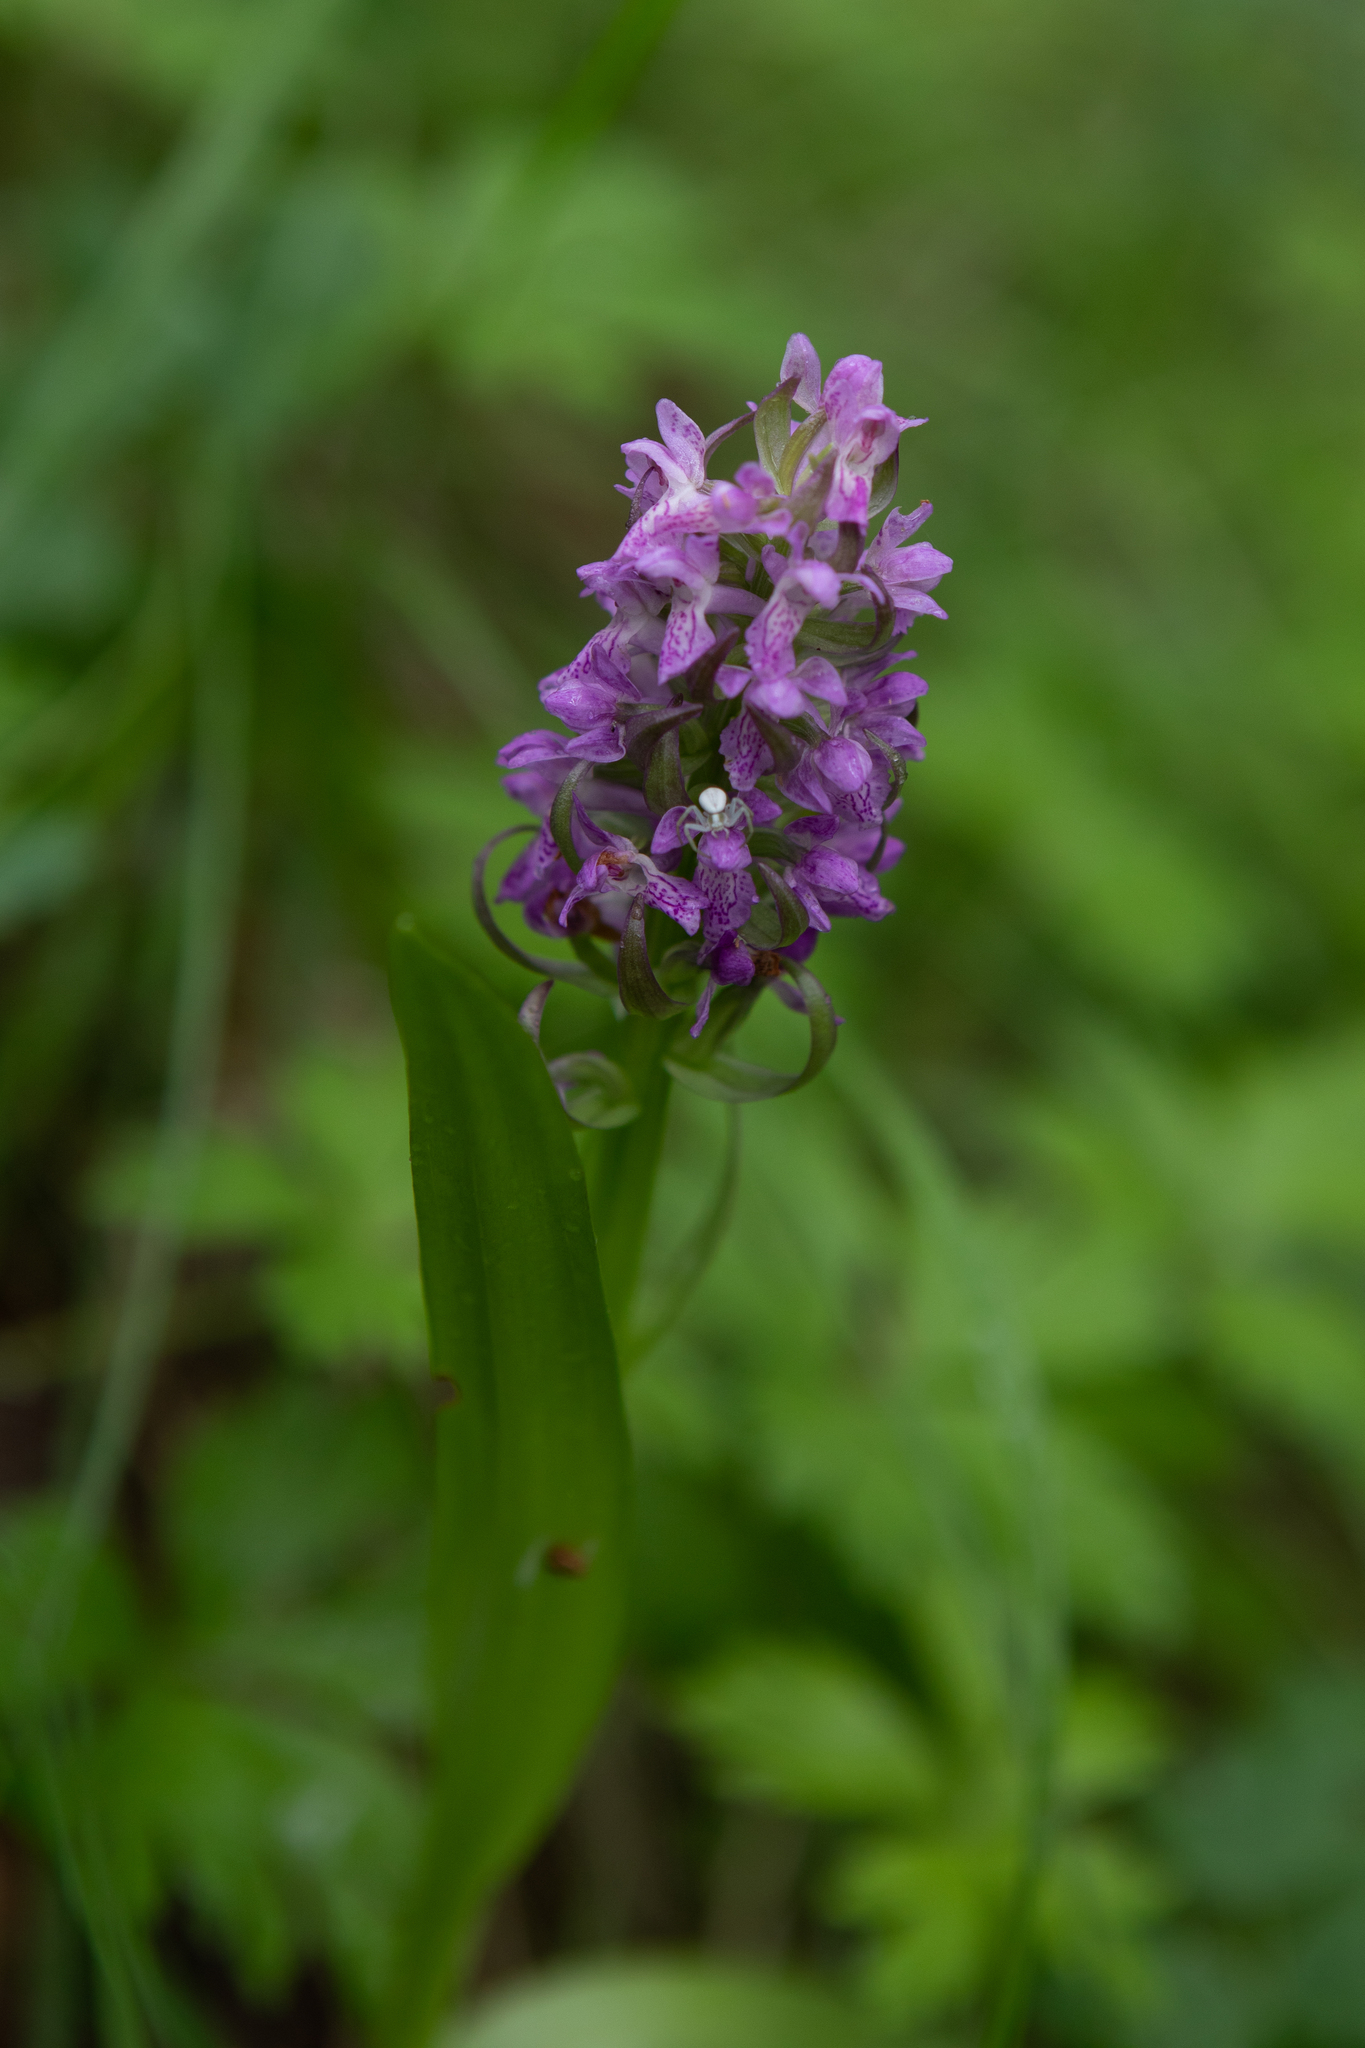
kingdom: Plantae
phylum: Tracheophyta
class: Liliopsida
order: Asparagales
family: Orchidaceae
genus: Dactylorhiza
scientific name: Dactylorhiza incarnata
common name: Early marsh-orchid
